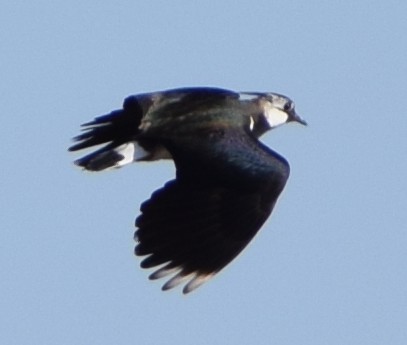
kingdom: Animalia
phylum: Chordata
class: Aves
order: Charadriiformes
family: Charadriidae
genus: Vanellus
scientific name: Vanellus vanellus
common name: Northern lapwing
